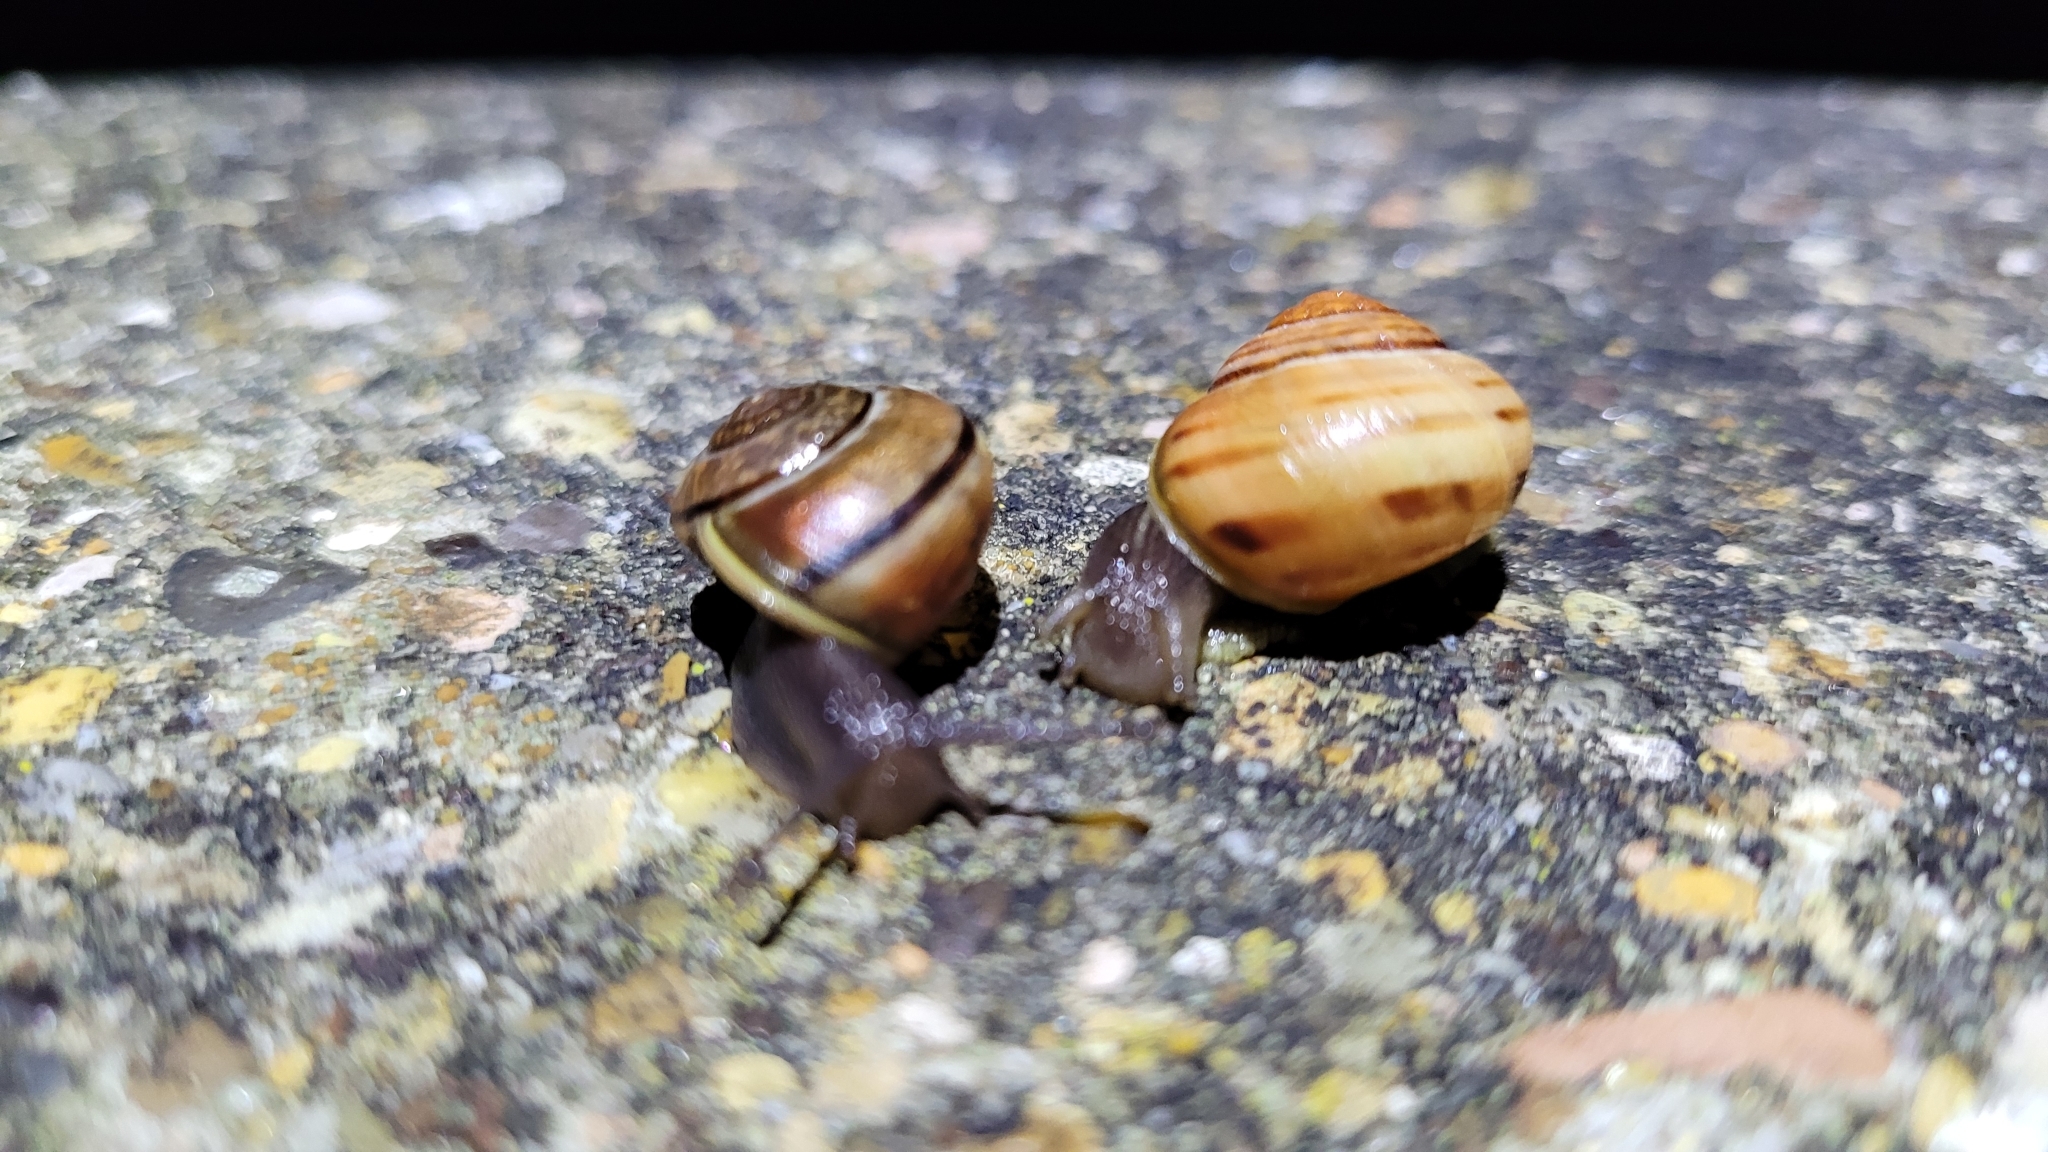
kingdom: Animalia
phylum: Mollusca
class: Gastropoda
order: Stylommatophora
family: Helicidae
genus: Cepaea
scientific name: Cepaea
